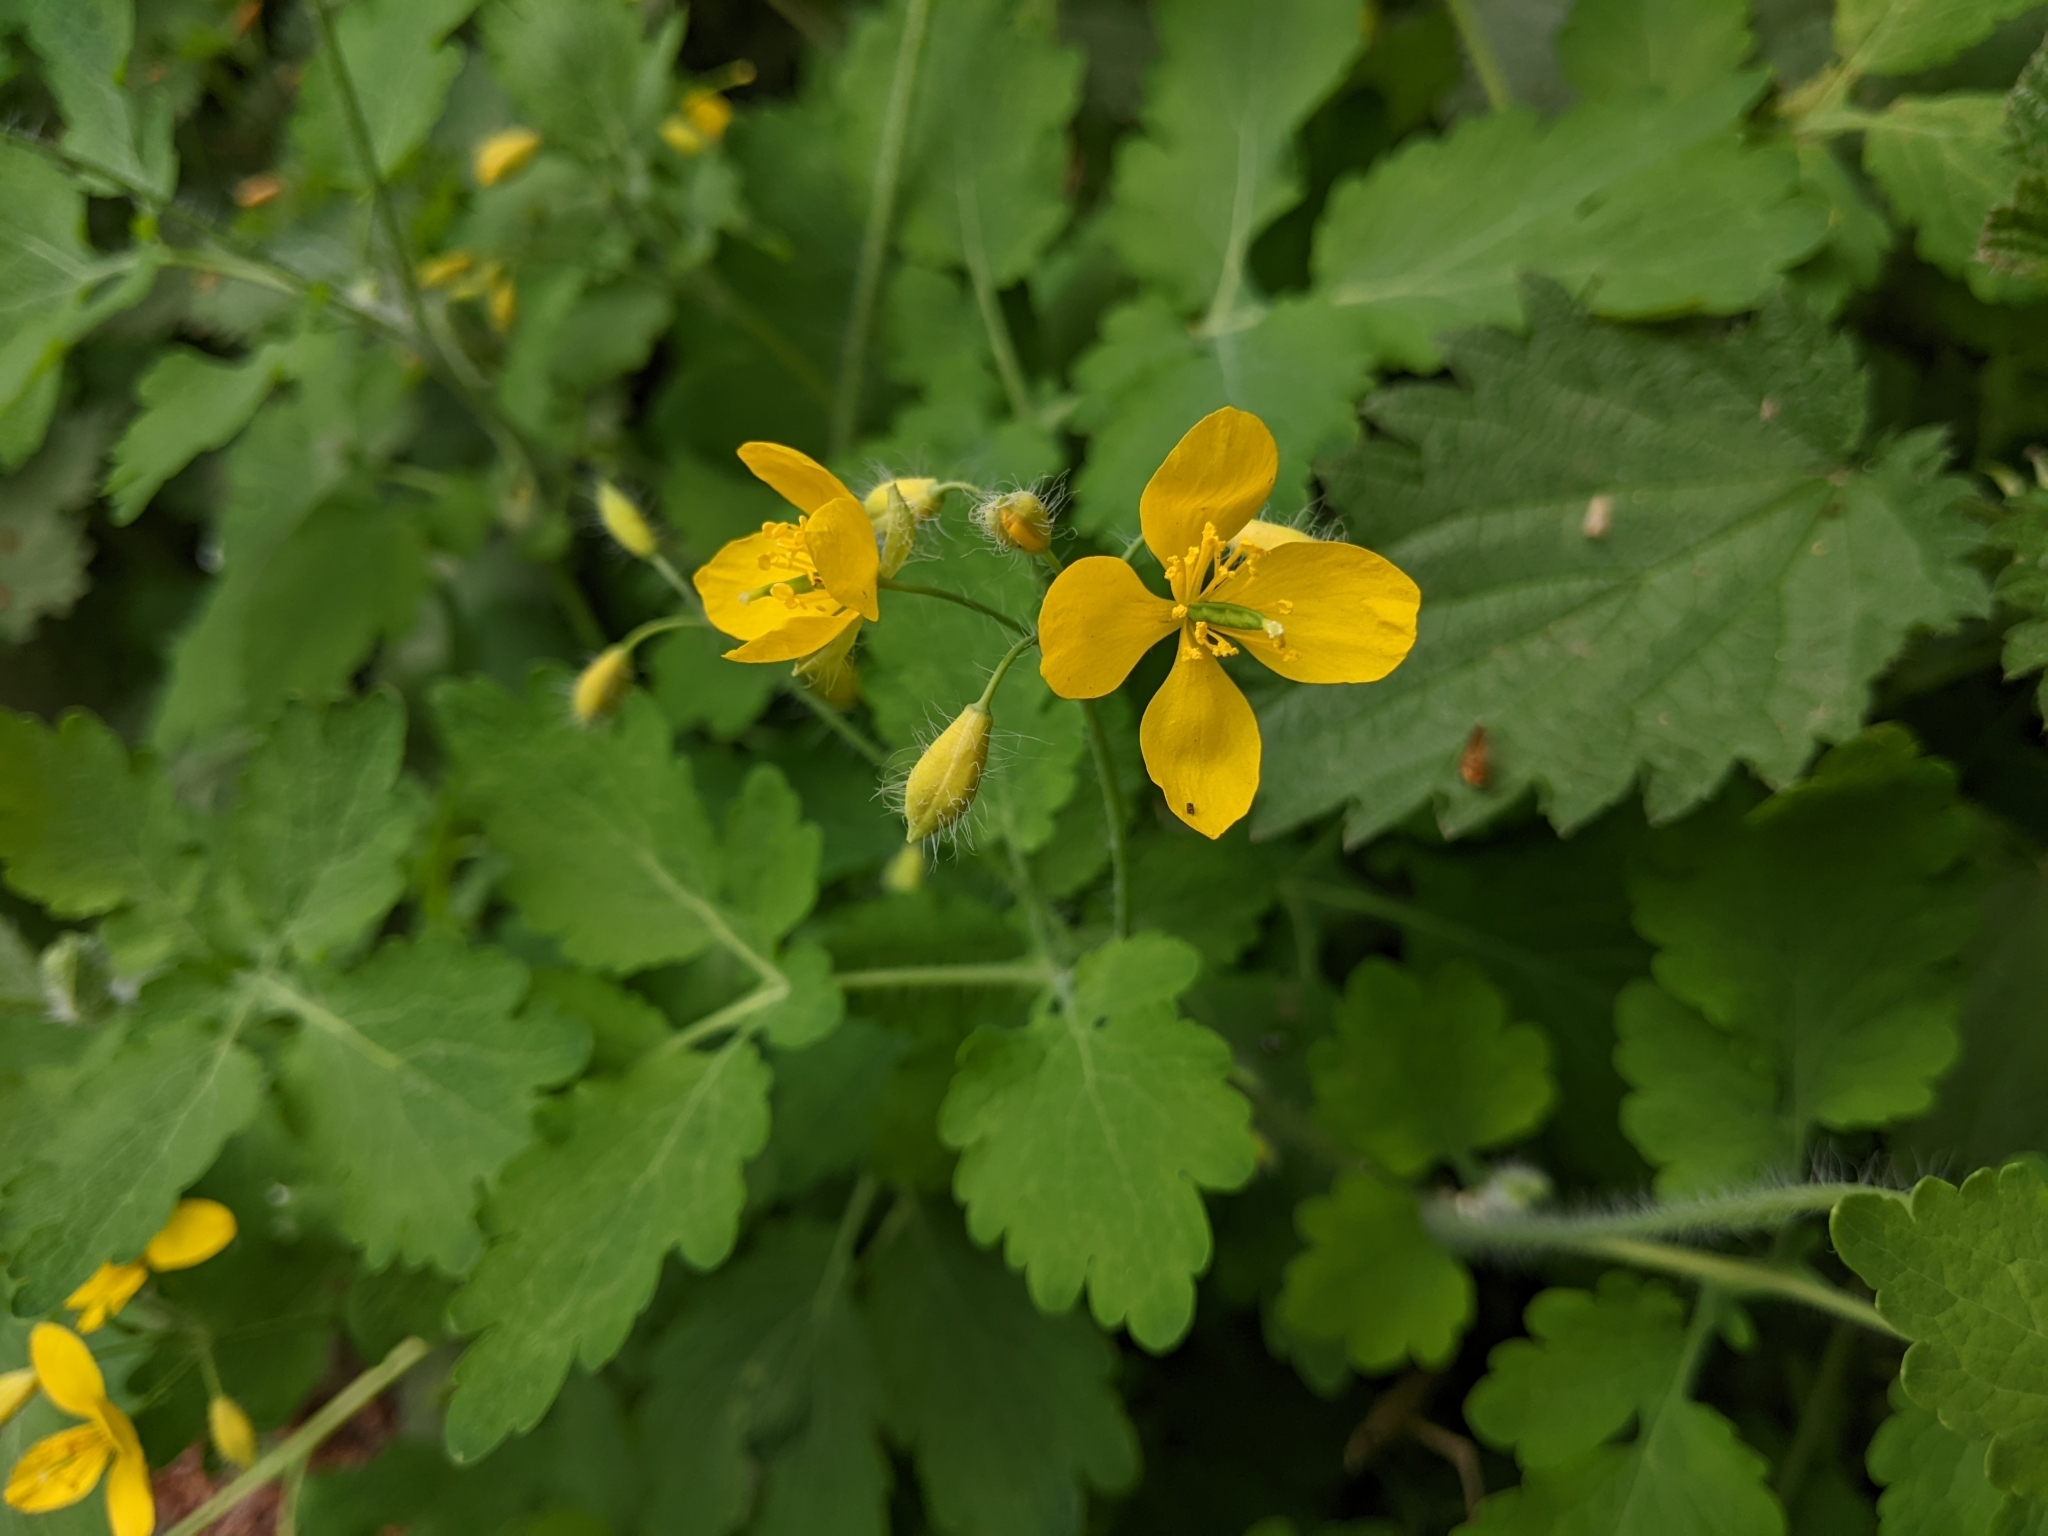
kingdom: Plantae
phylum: Tracheophyta
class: Magnoliopsida
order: Ranunculales
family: Papaveraceae
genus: Chelidonium
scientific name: Chelidonium majus
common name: Greater celandine
